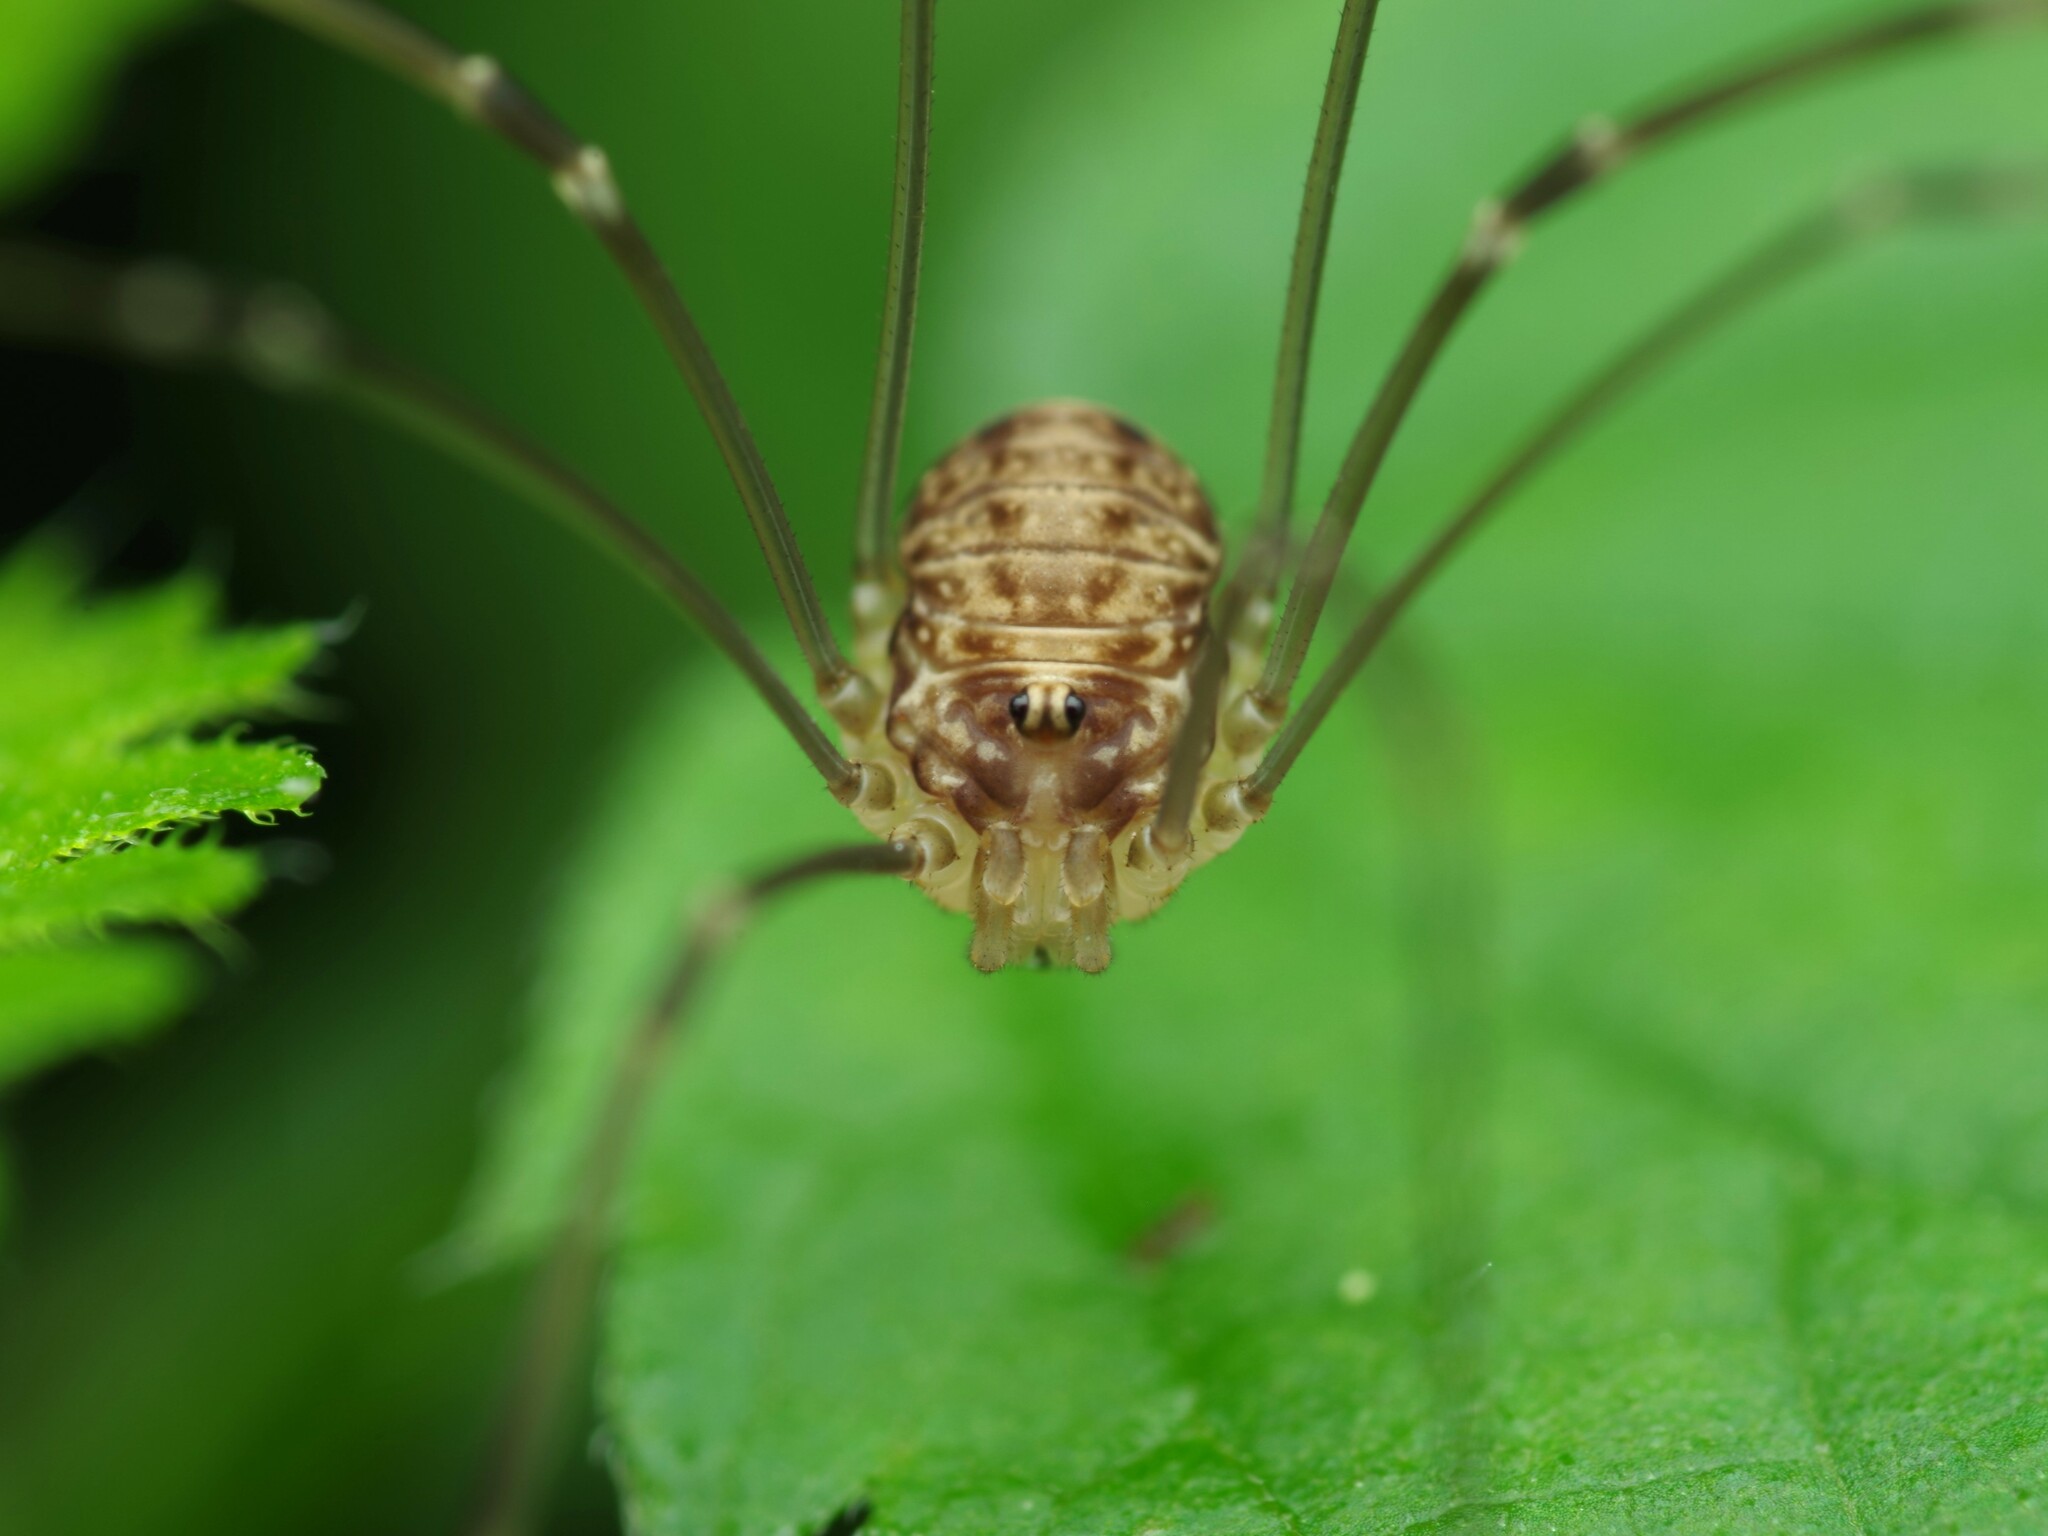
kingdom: Animalia
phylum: Arthropoda
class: Arachnida
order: Opiliones
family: Sclerosomatidae
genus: Leiobunum
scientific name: Leiobunum blackwalli
